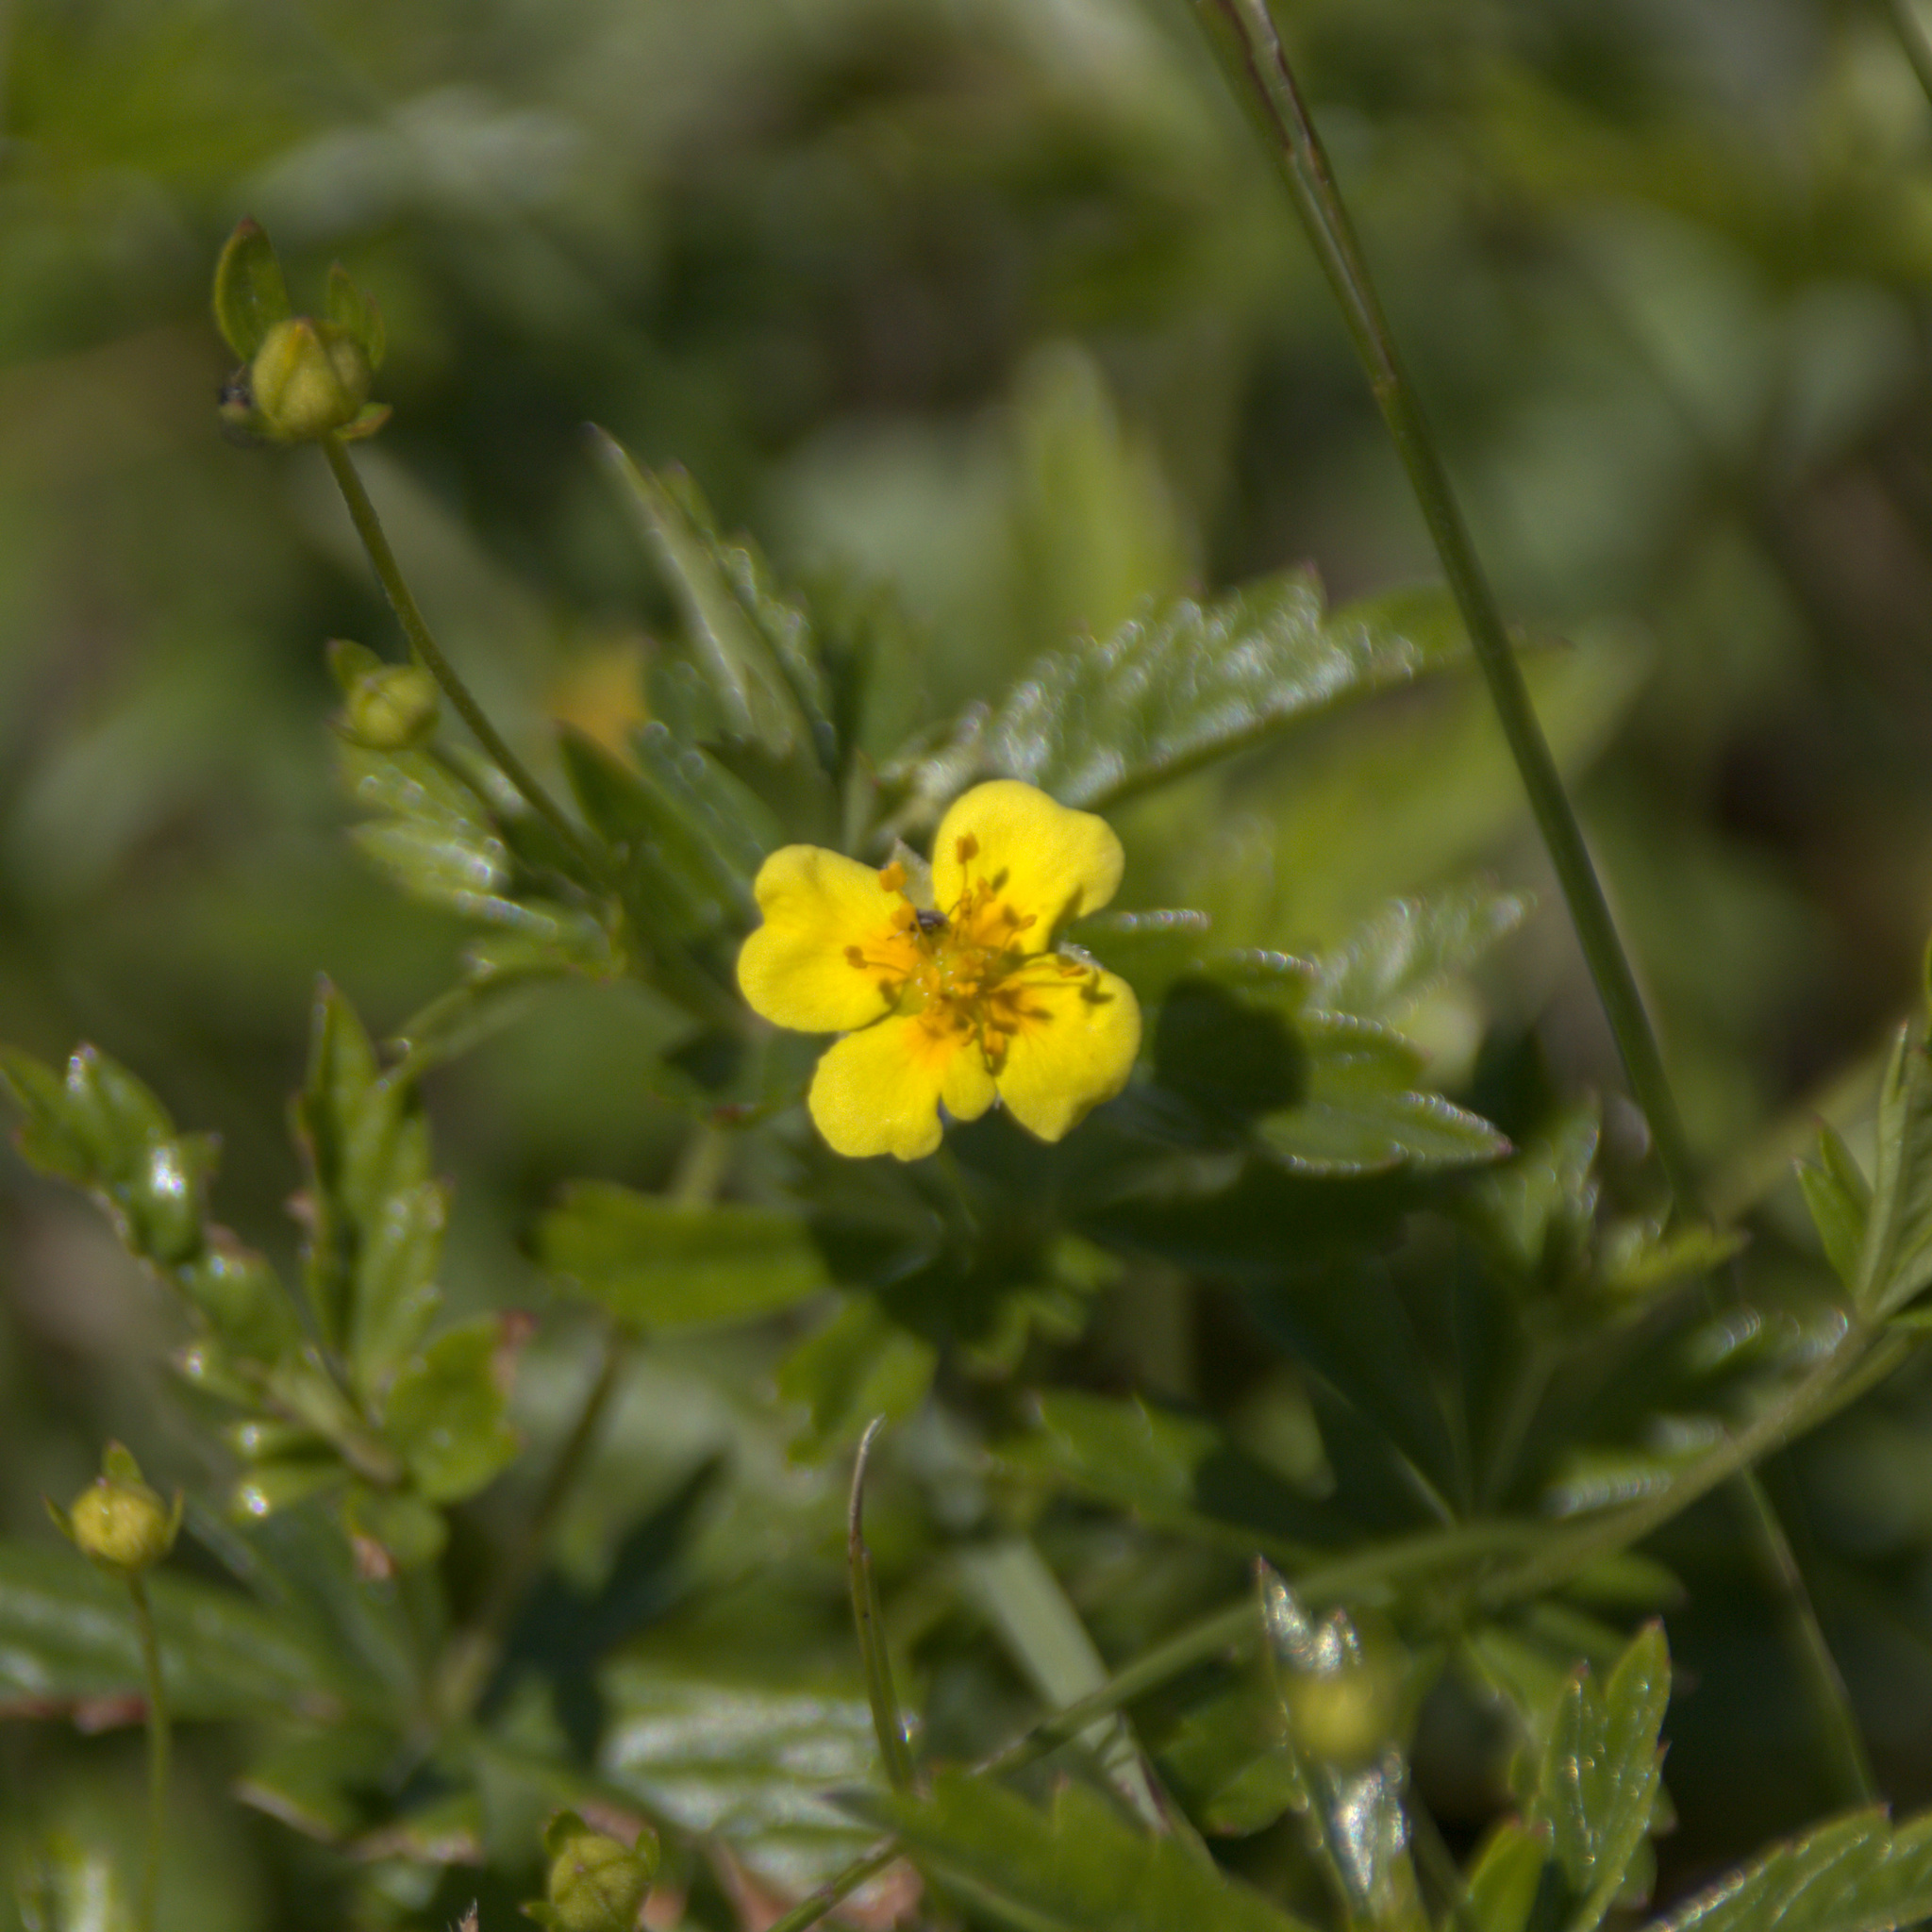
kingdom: Plantae
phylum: Tracheophyta
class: Magnoliopsida
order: Rosales
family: Rosaceae
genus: Potentilla
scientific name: Potentilla erecta
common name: Tormentil
